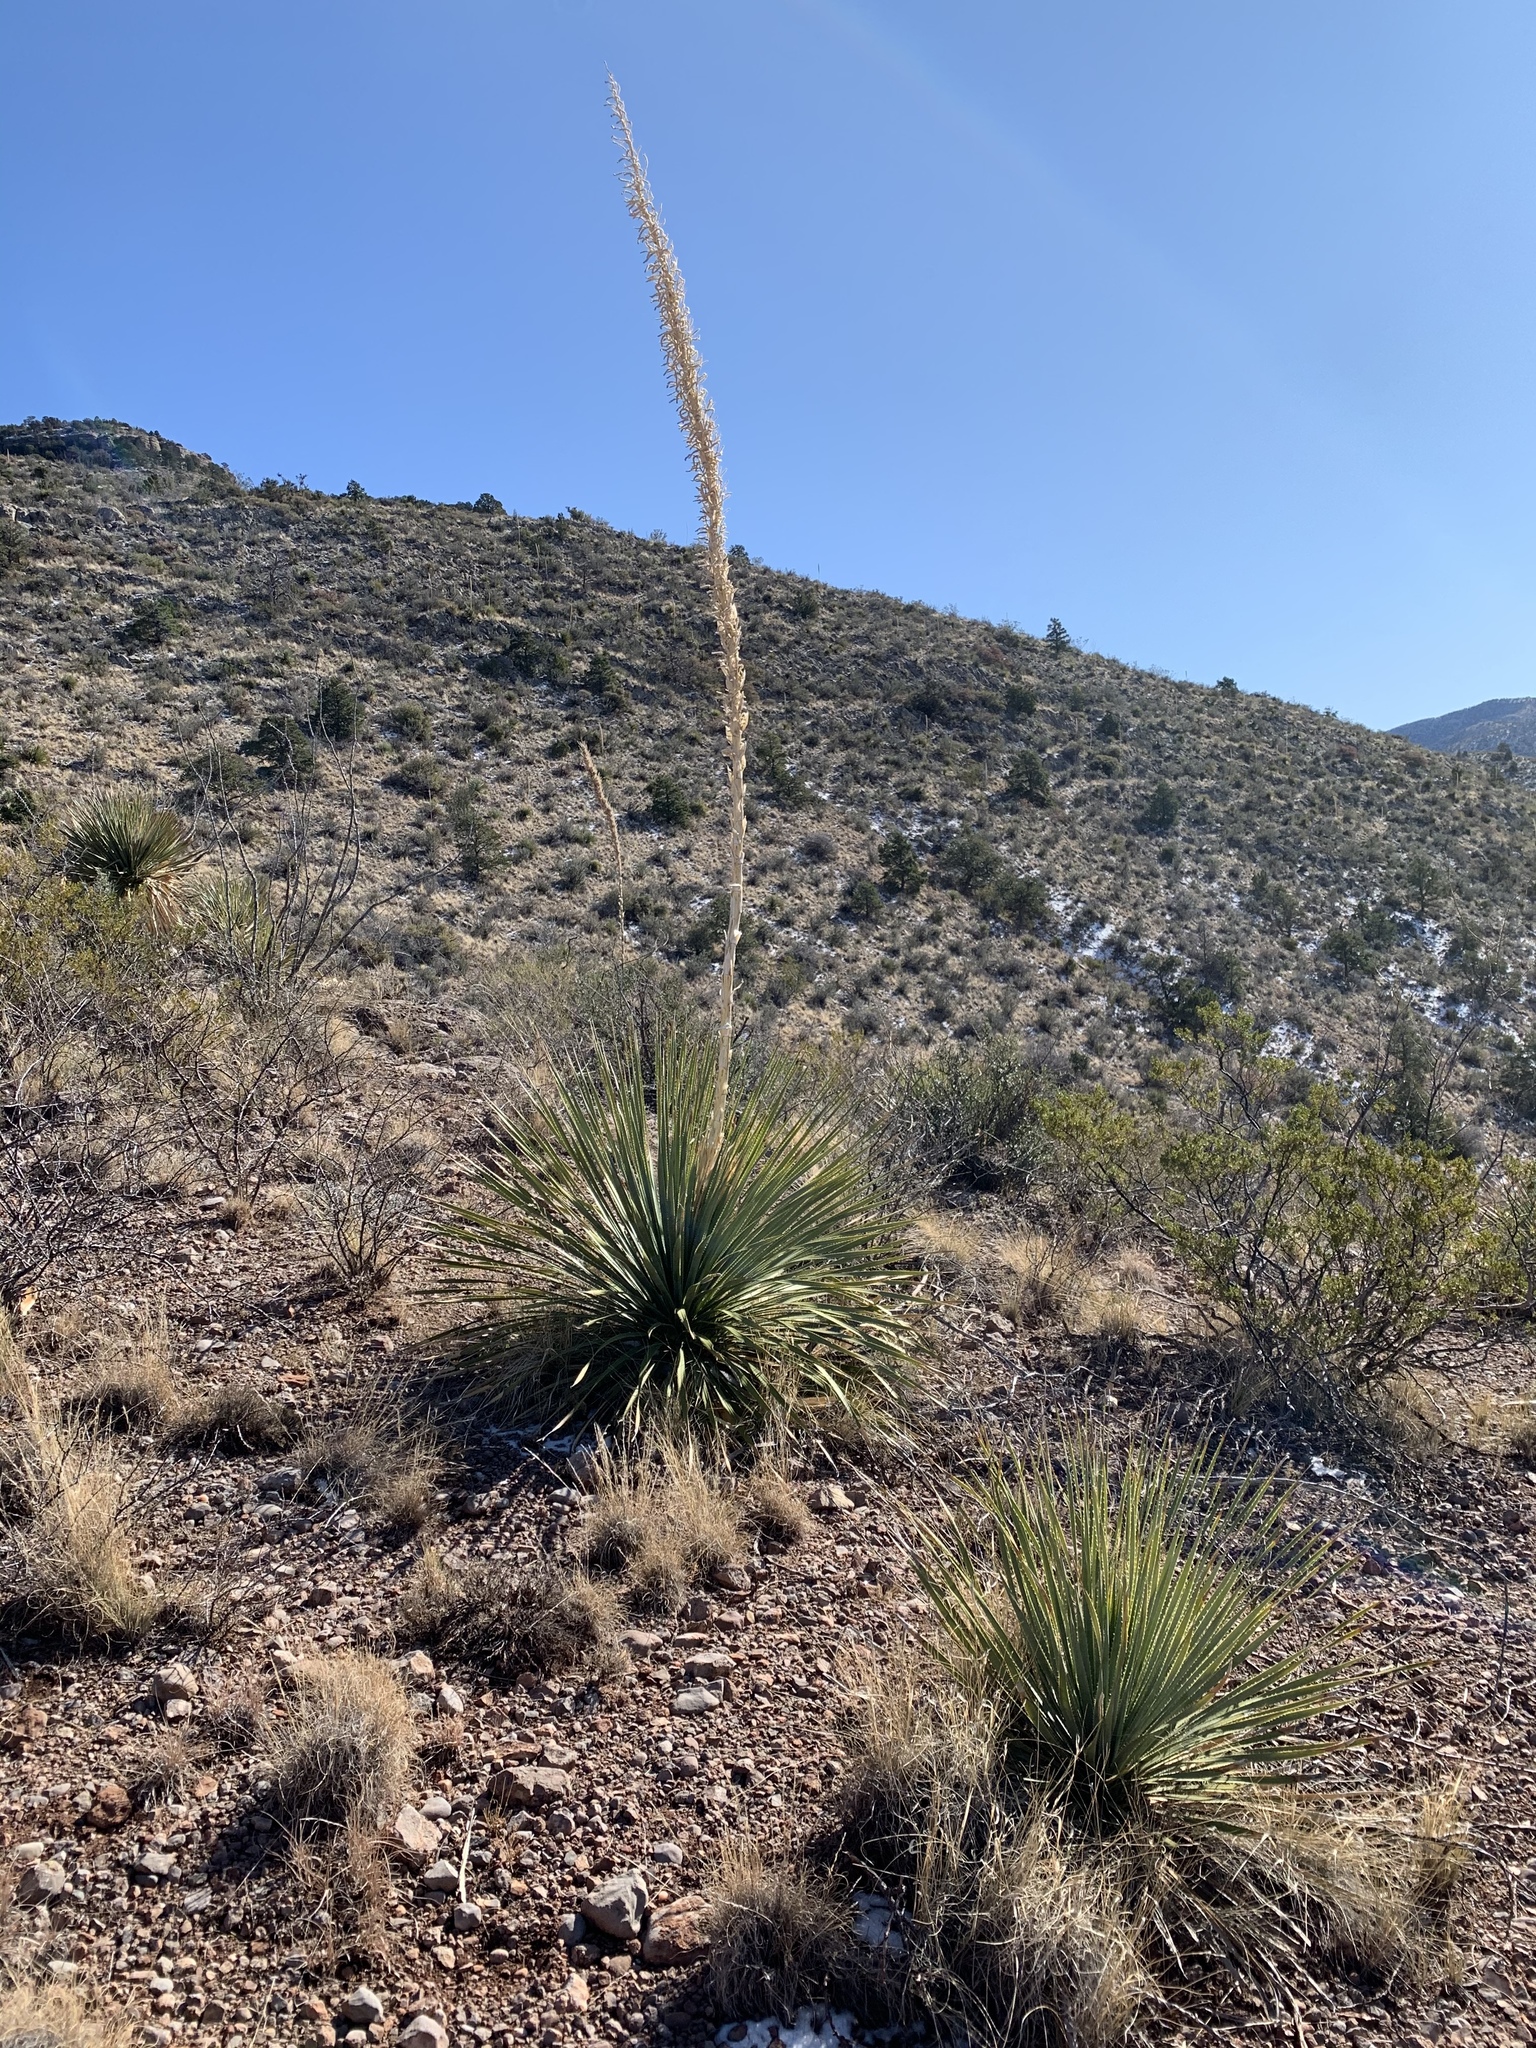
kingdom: Plantae
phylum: Tracheophyta
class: Liliopsida
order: Asparagales
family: Asparagaceae
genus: Dasylirion
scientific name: Dasylirion wheeleri
